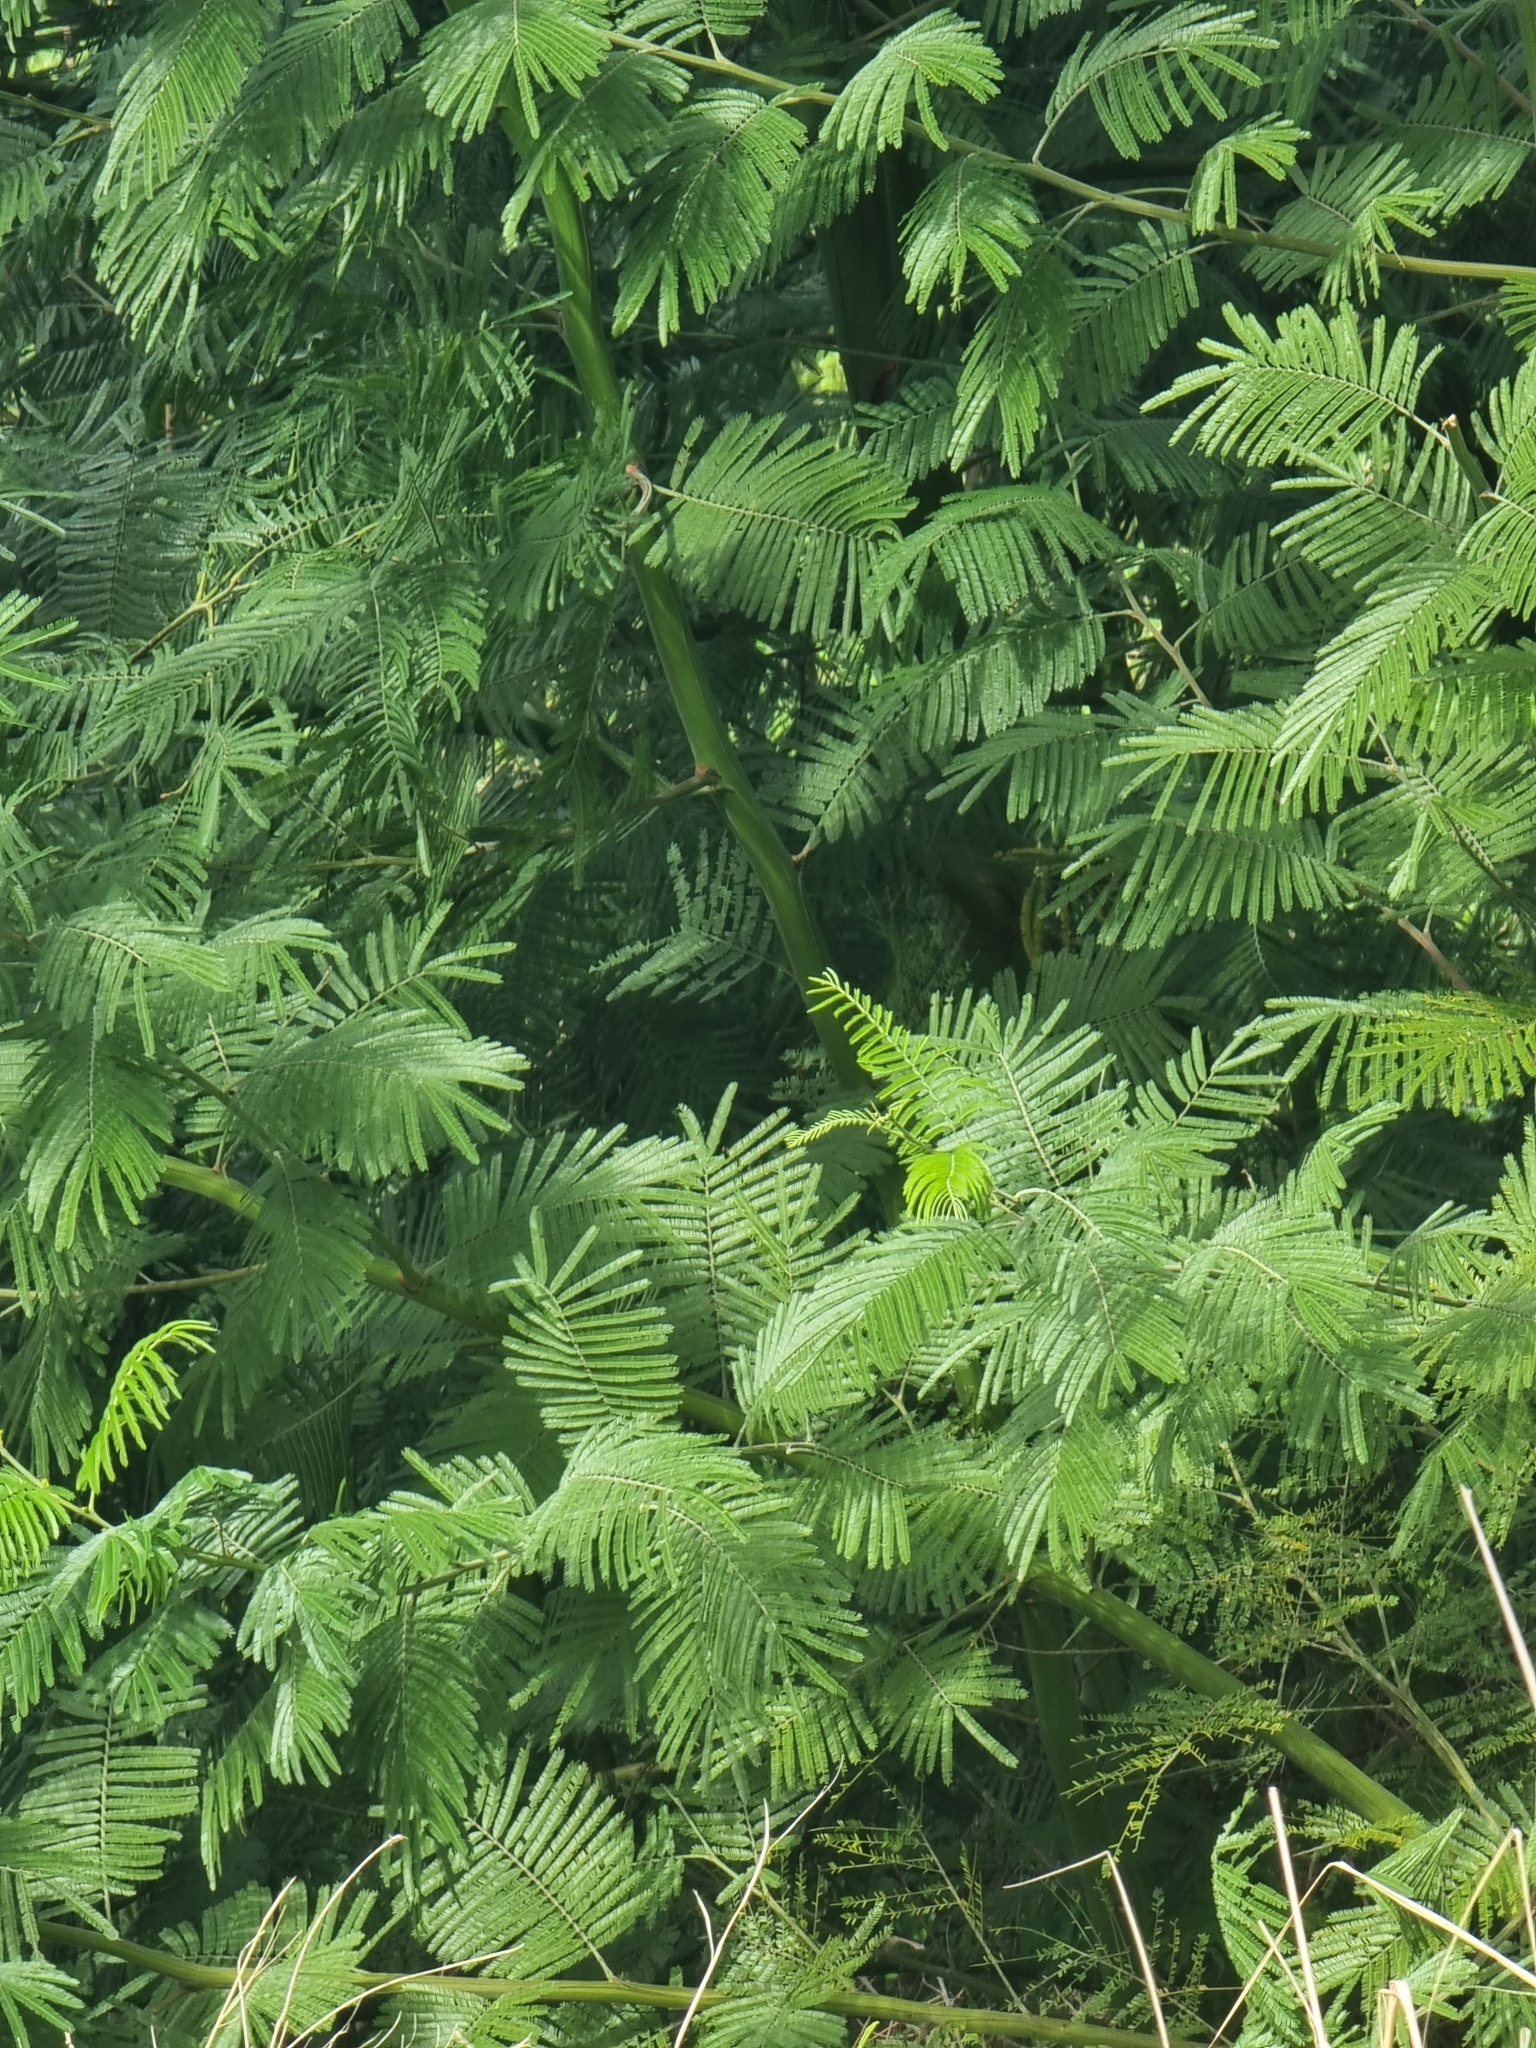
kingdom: Plantae
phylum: Tracheophyta
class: Magnoliopsida
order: Fabales
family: Fabaceae
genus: Acacia
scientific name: Acacia mearnsii
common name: Black wattle
